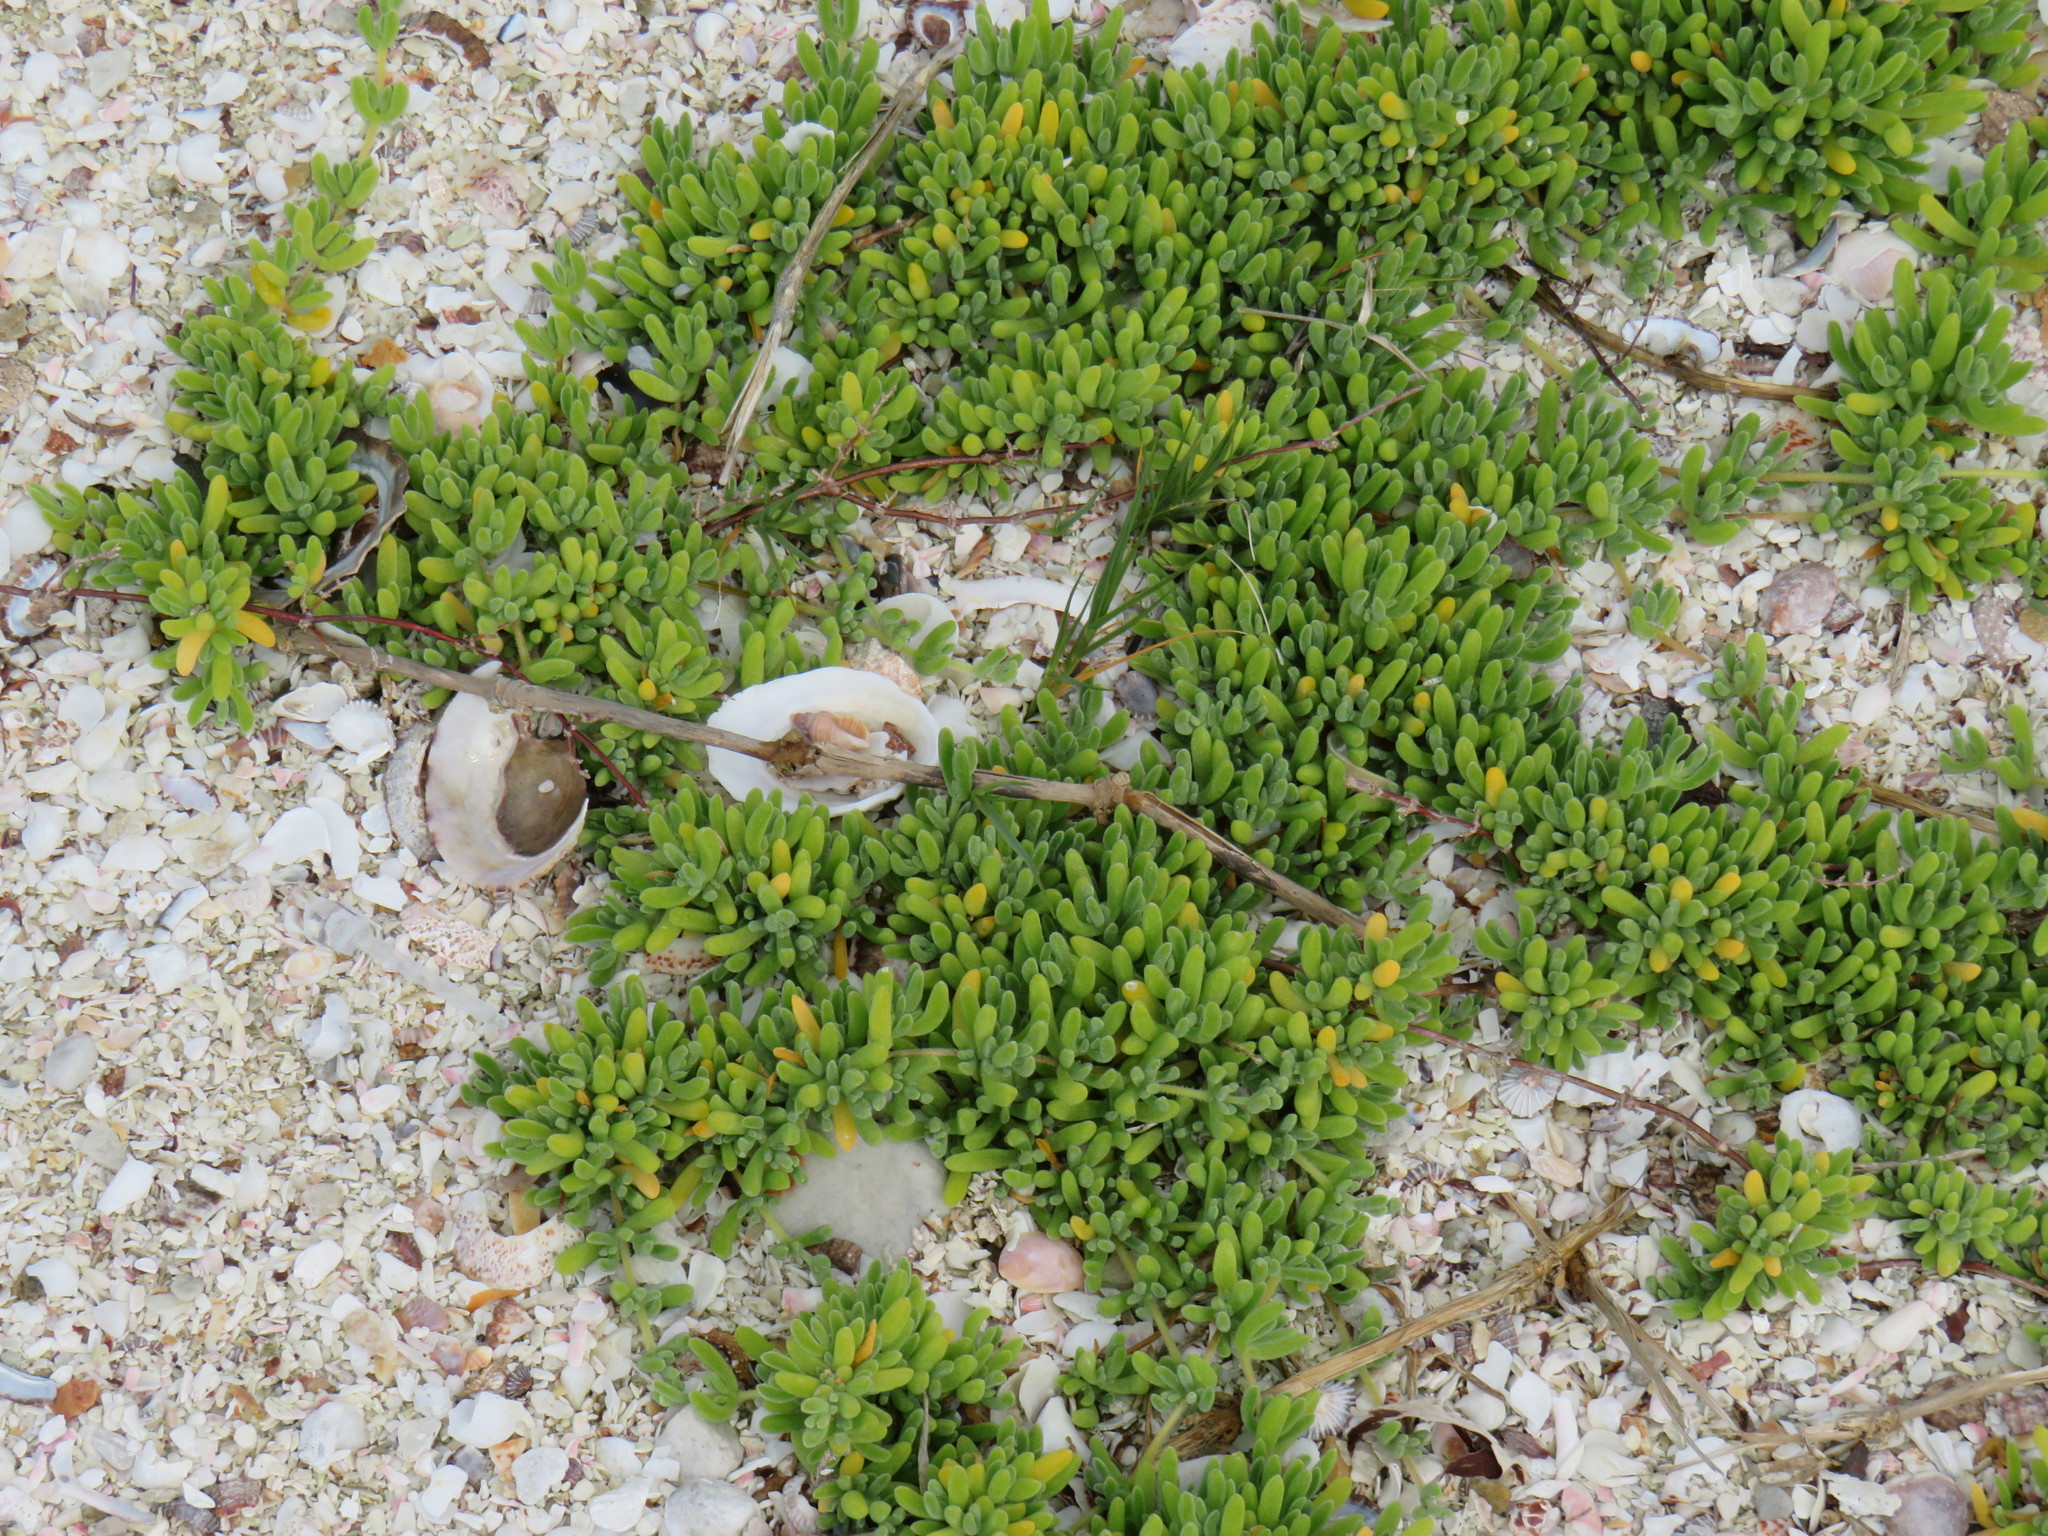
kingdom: Plantae
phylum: Tracheophyta
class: Magnoliopsida
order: Caryophyllales
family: Aizoaceae
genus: Drosanthemum
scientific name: Drosanthemum candens
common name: Rodondo-creeper
